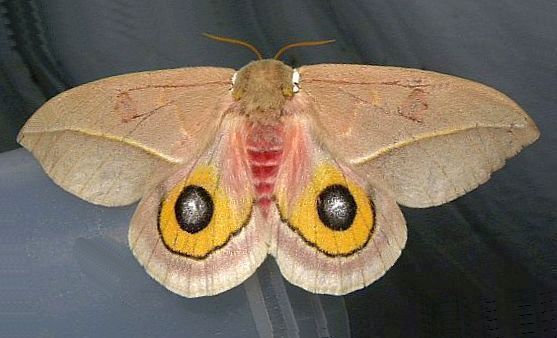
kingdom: Animalia
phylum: Arthropoda
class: Insecta
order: Lepidoptera
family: Saturniidae
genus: Automeris
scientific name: Automeris cecrops
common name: Cecrops eyed silkmoth
